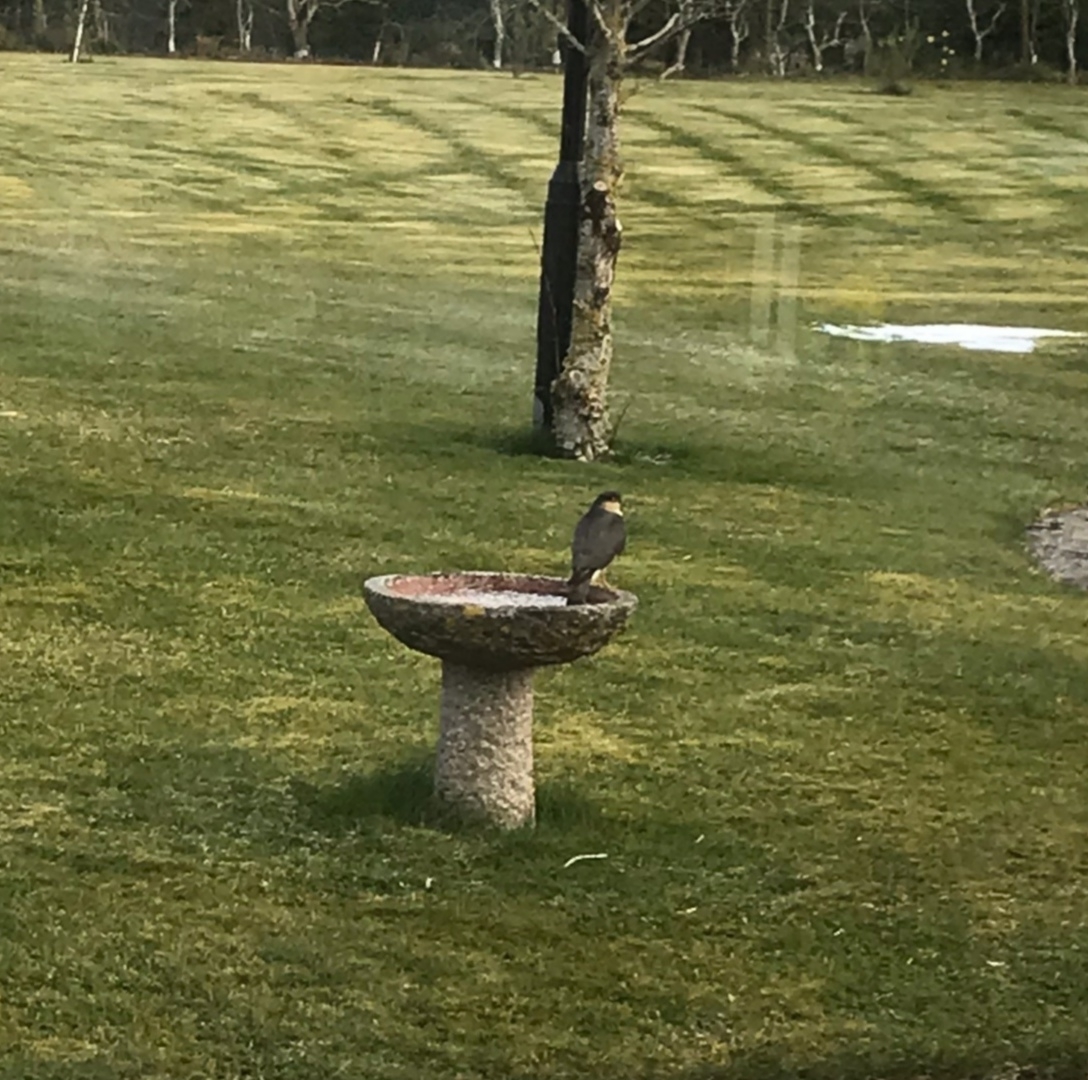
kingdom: Animalia
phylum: Chordata
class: Aves
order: Accipitriformes
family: Accipitridae
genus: Accipiter
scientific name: Accipiter nisus
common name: Eurasian sparrowhawk
